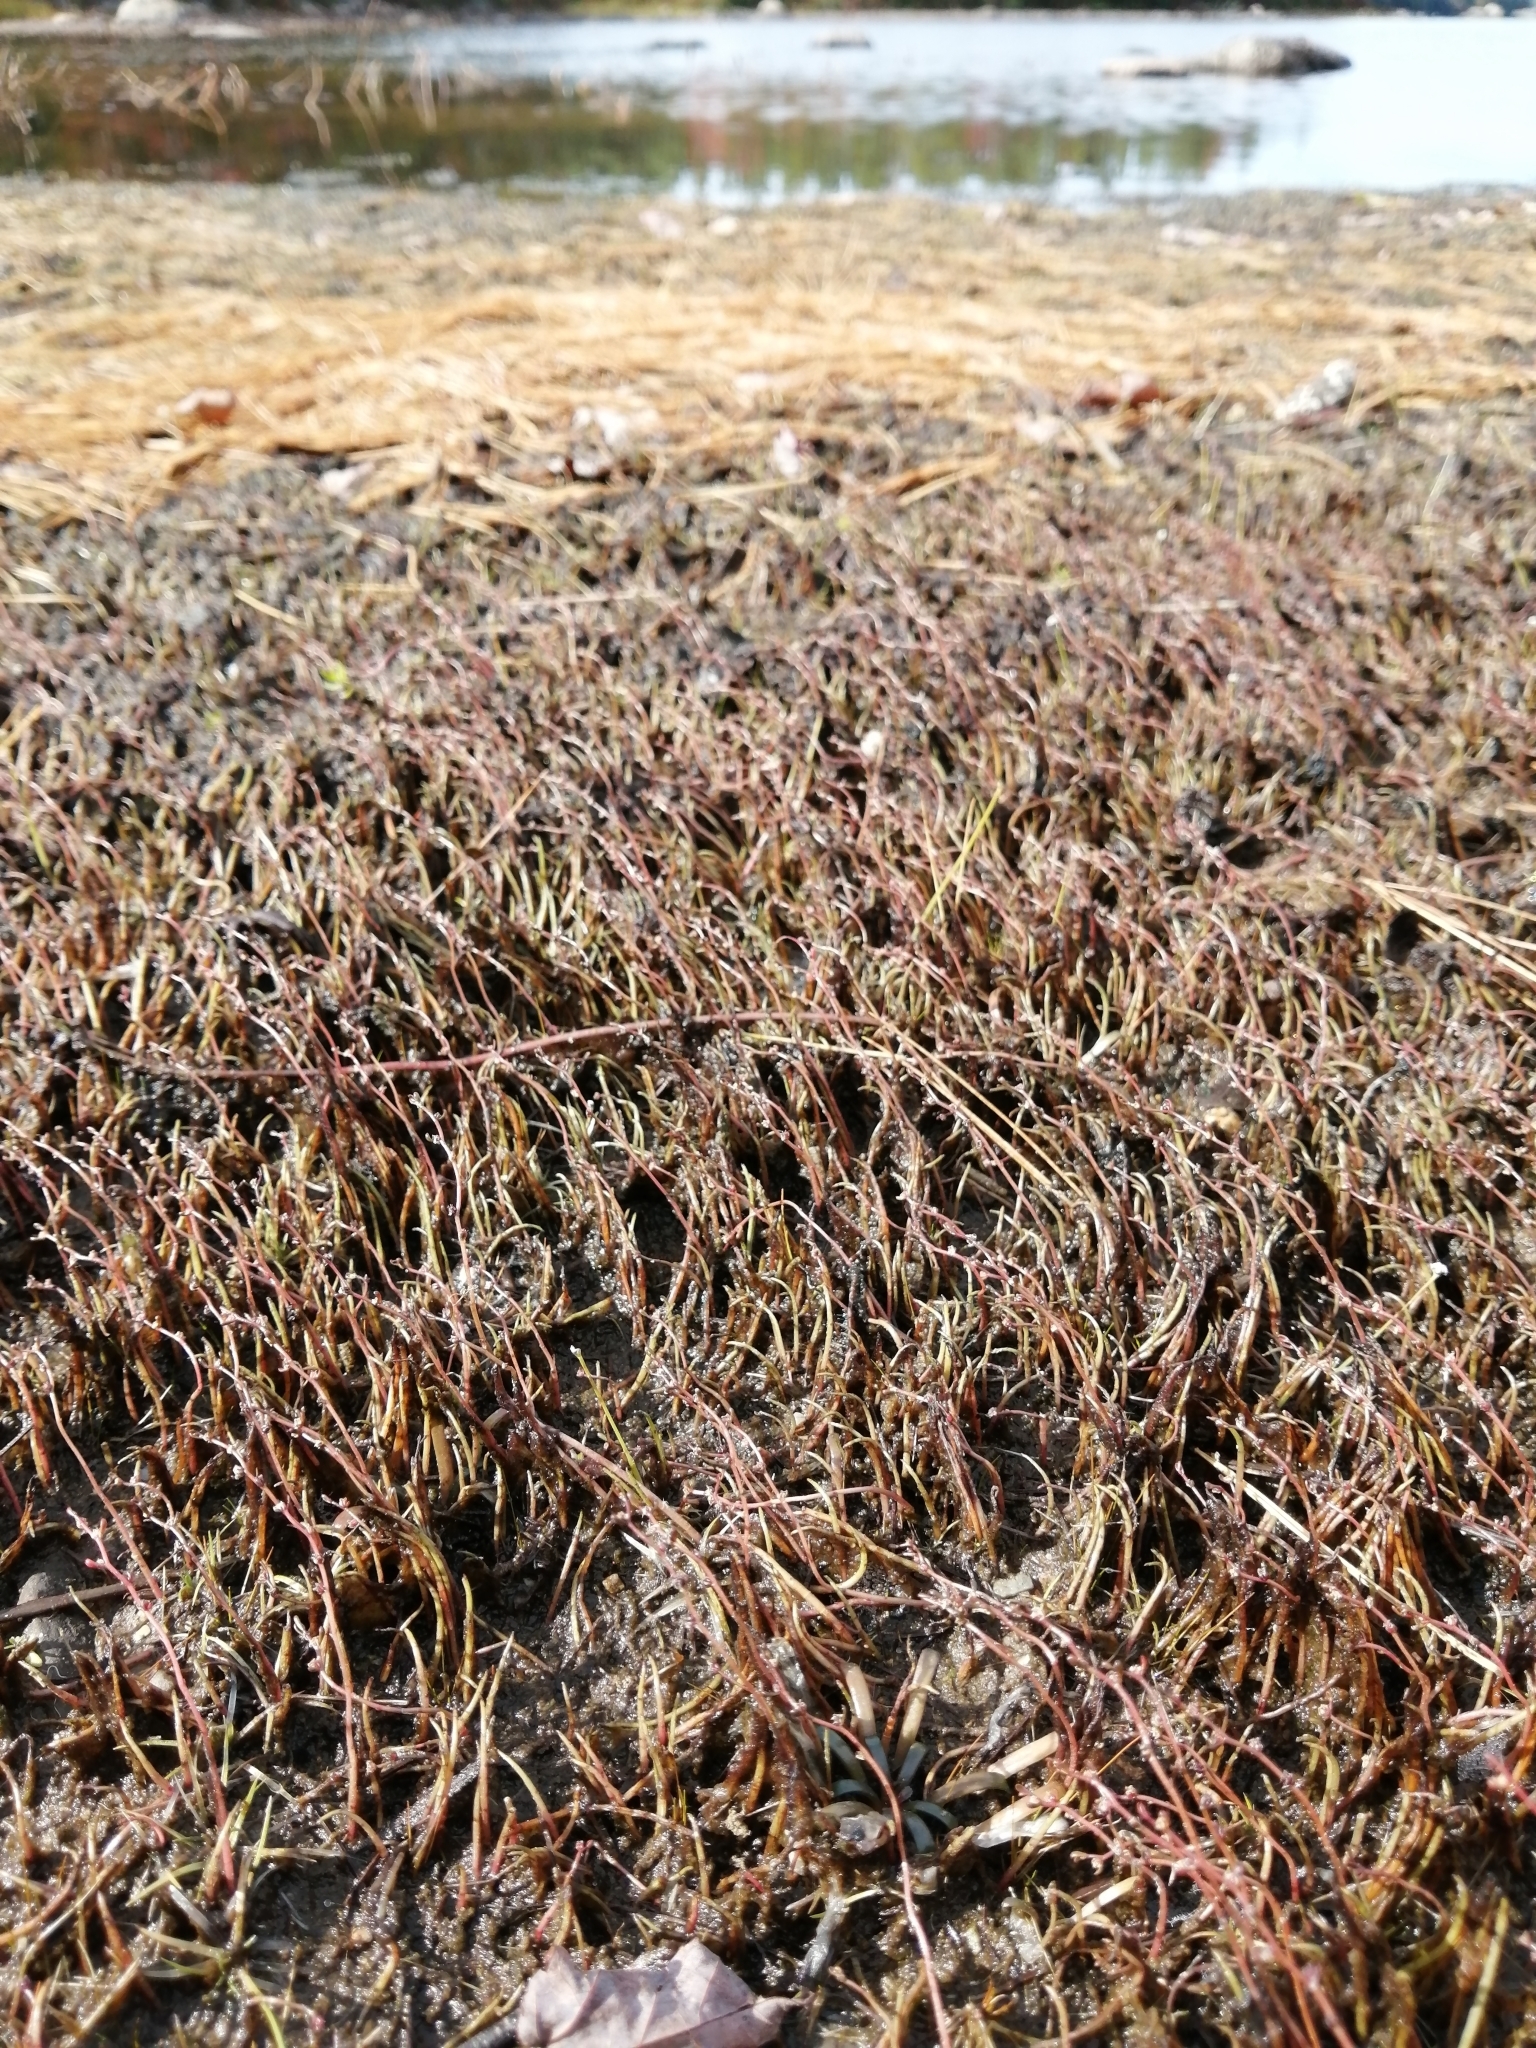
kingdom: Plantae
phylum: Tracheophyta
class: Magnoliopsida
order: Saxifragales
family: Haloragaceae
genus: Myriophyllum
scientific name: Myriophyllum tenellum
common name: Slender water-milfoil
